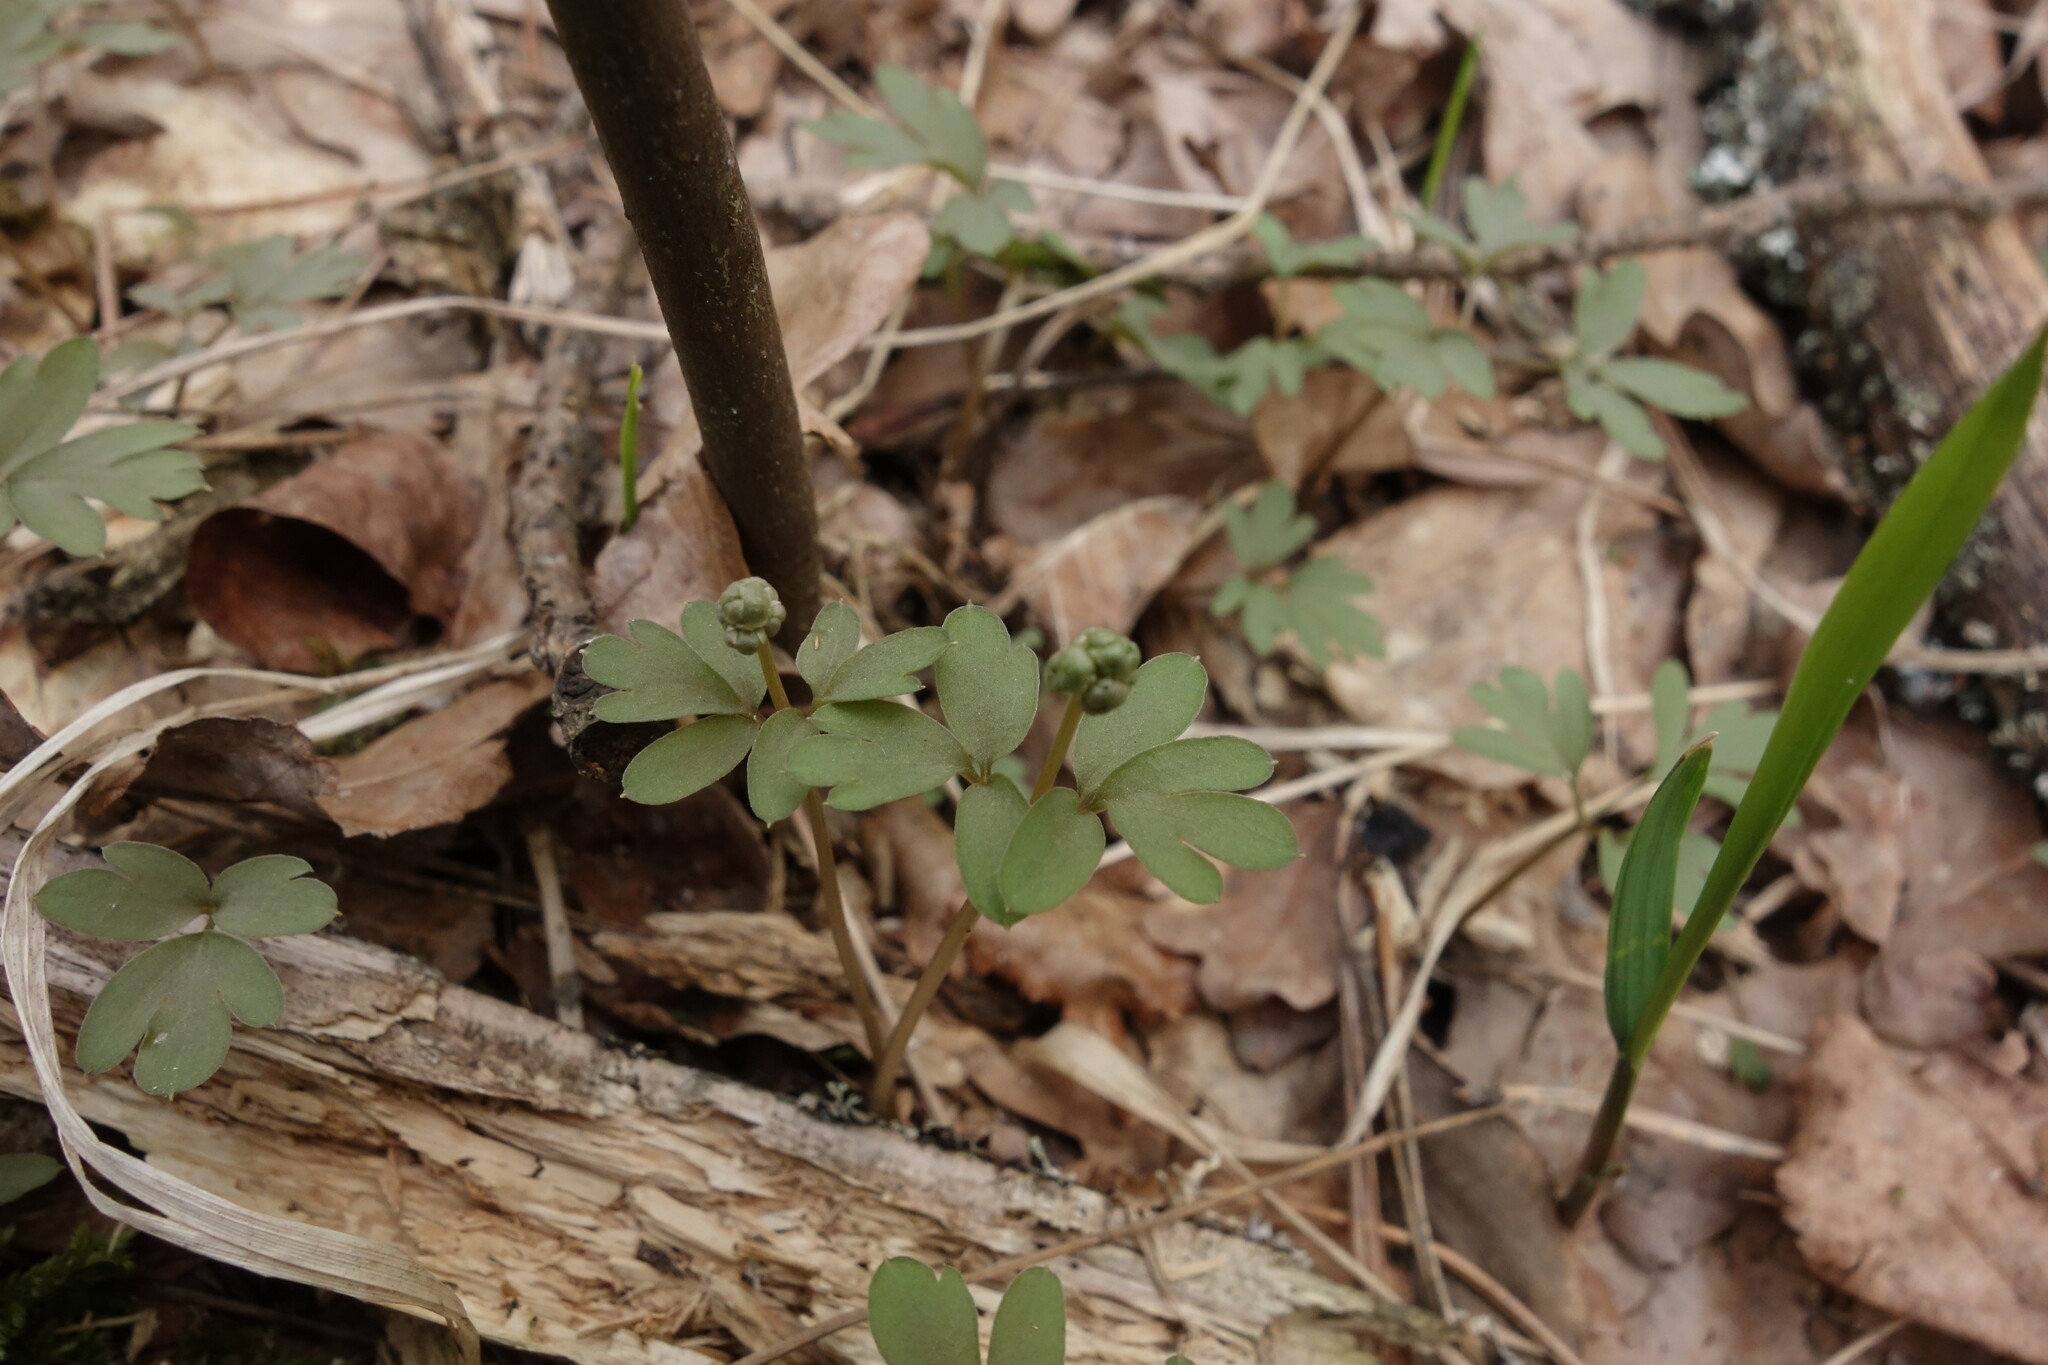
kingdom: Plantae
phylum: Tracheophyta
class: Magnoliopsida
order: Dipsacales
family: Viburnaceae
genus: Adoxa
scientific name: Adoxa moschatellina
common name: Moschatel
